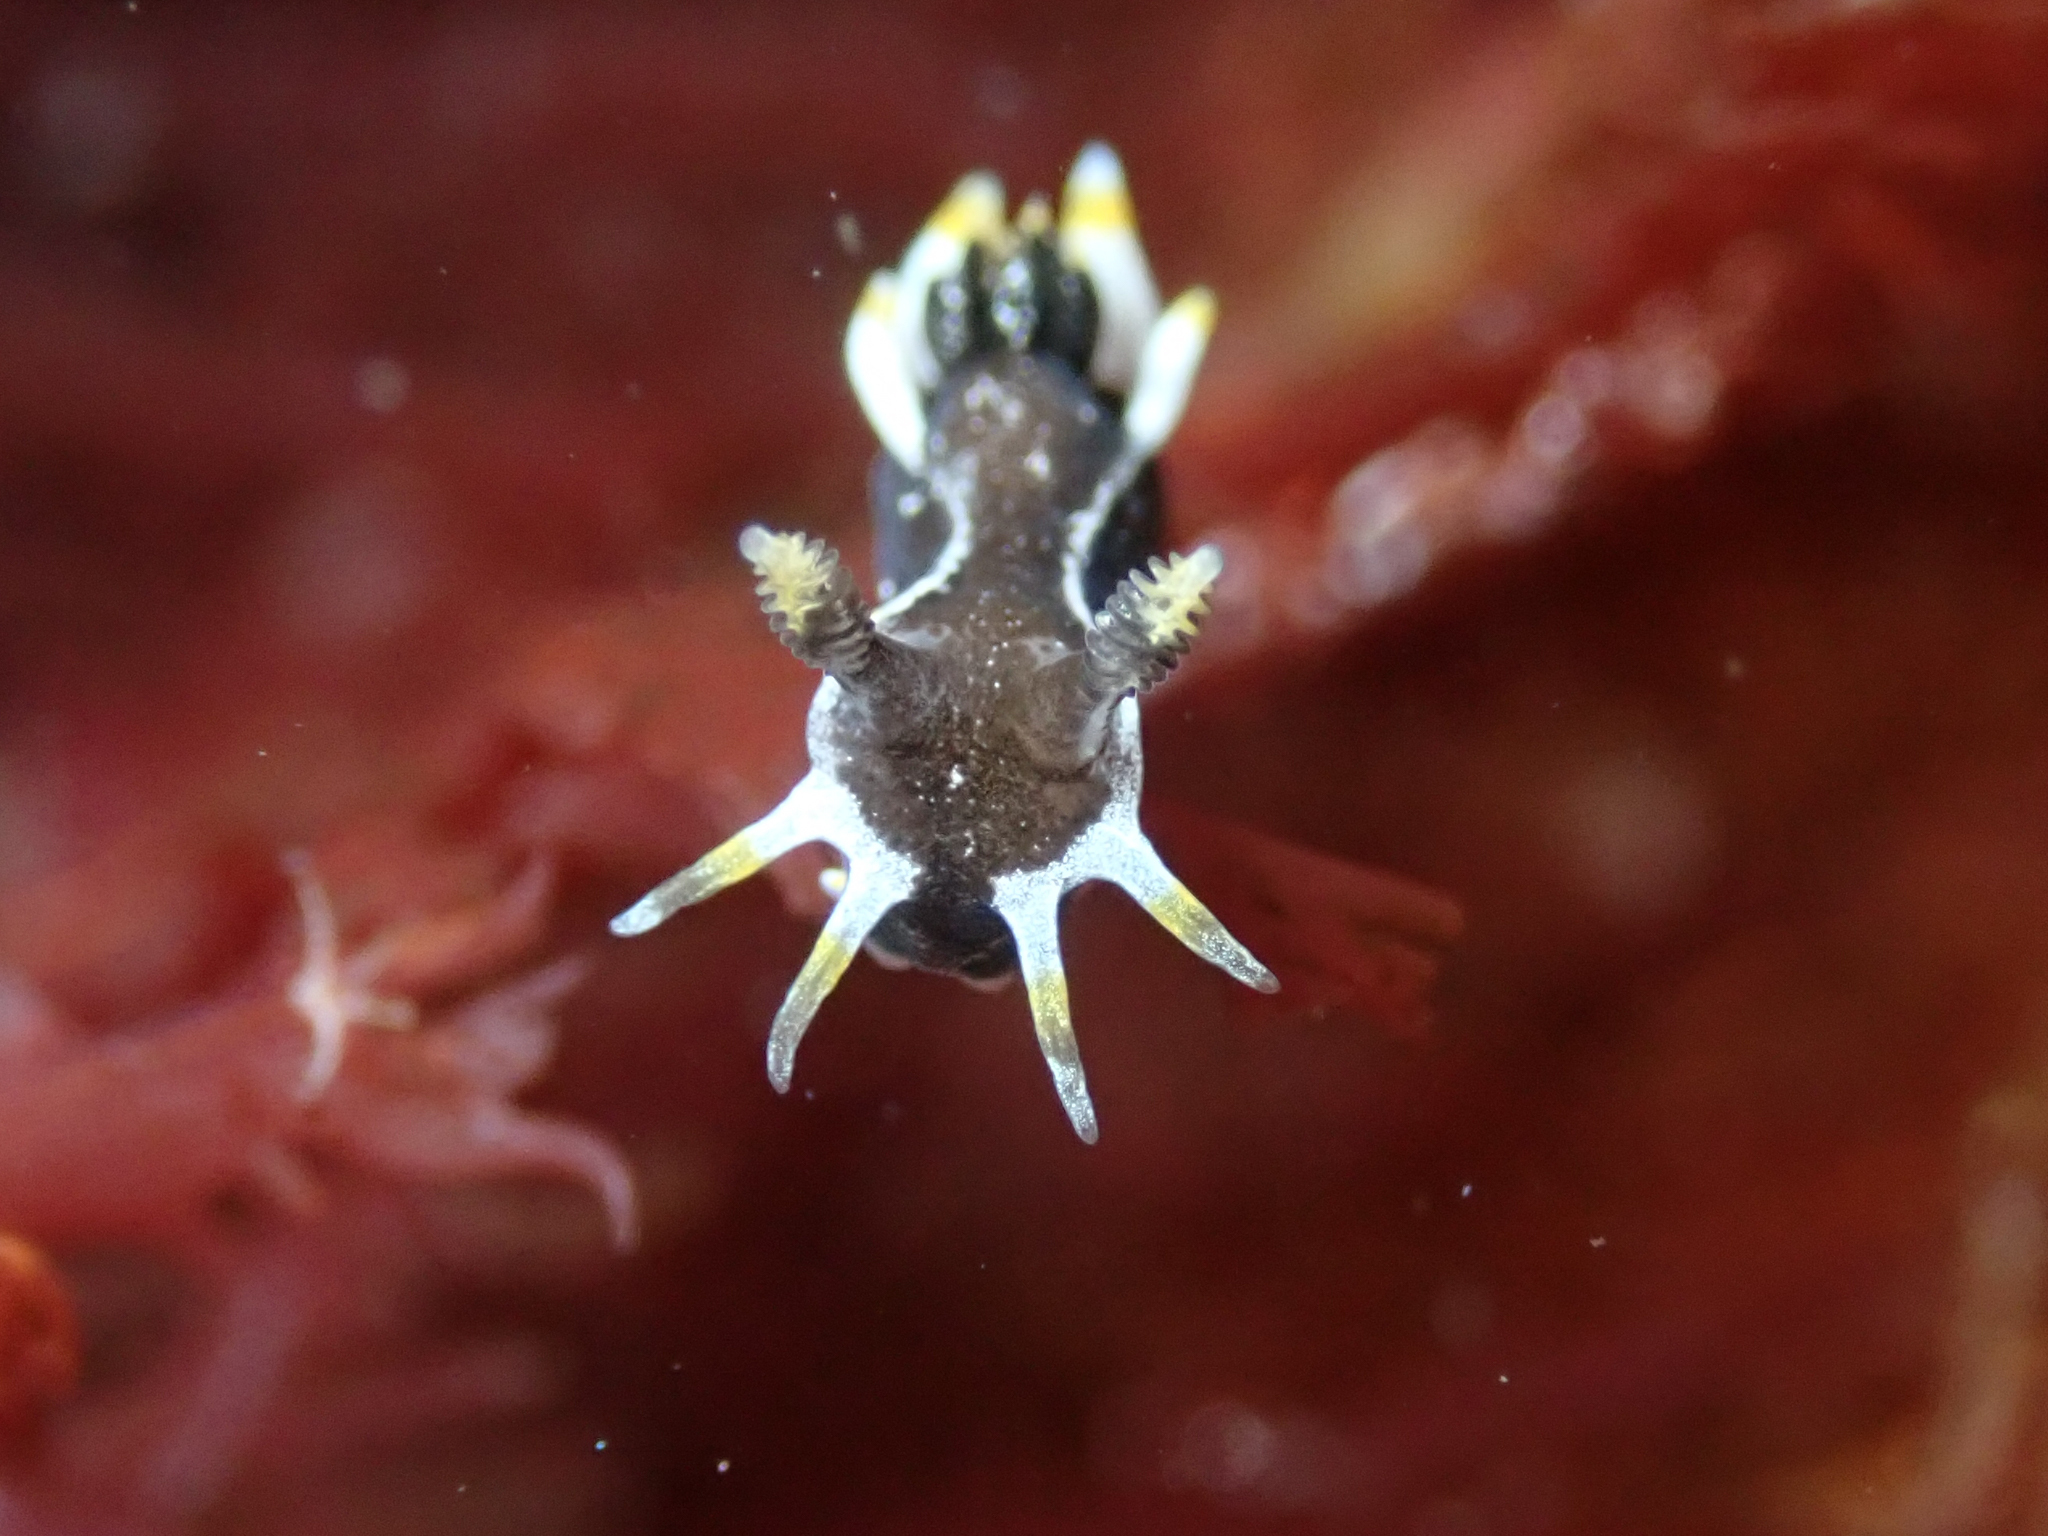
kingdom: Animalia
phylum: Mollusca
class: Gastropoda
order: Nudibranchia
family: Polyceridae
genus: Polycera
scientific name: Polycera hedgpethi
